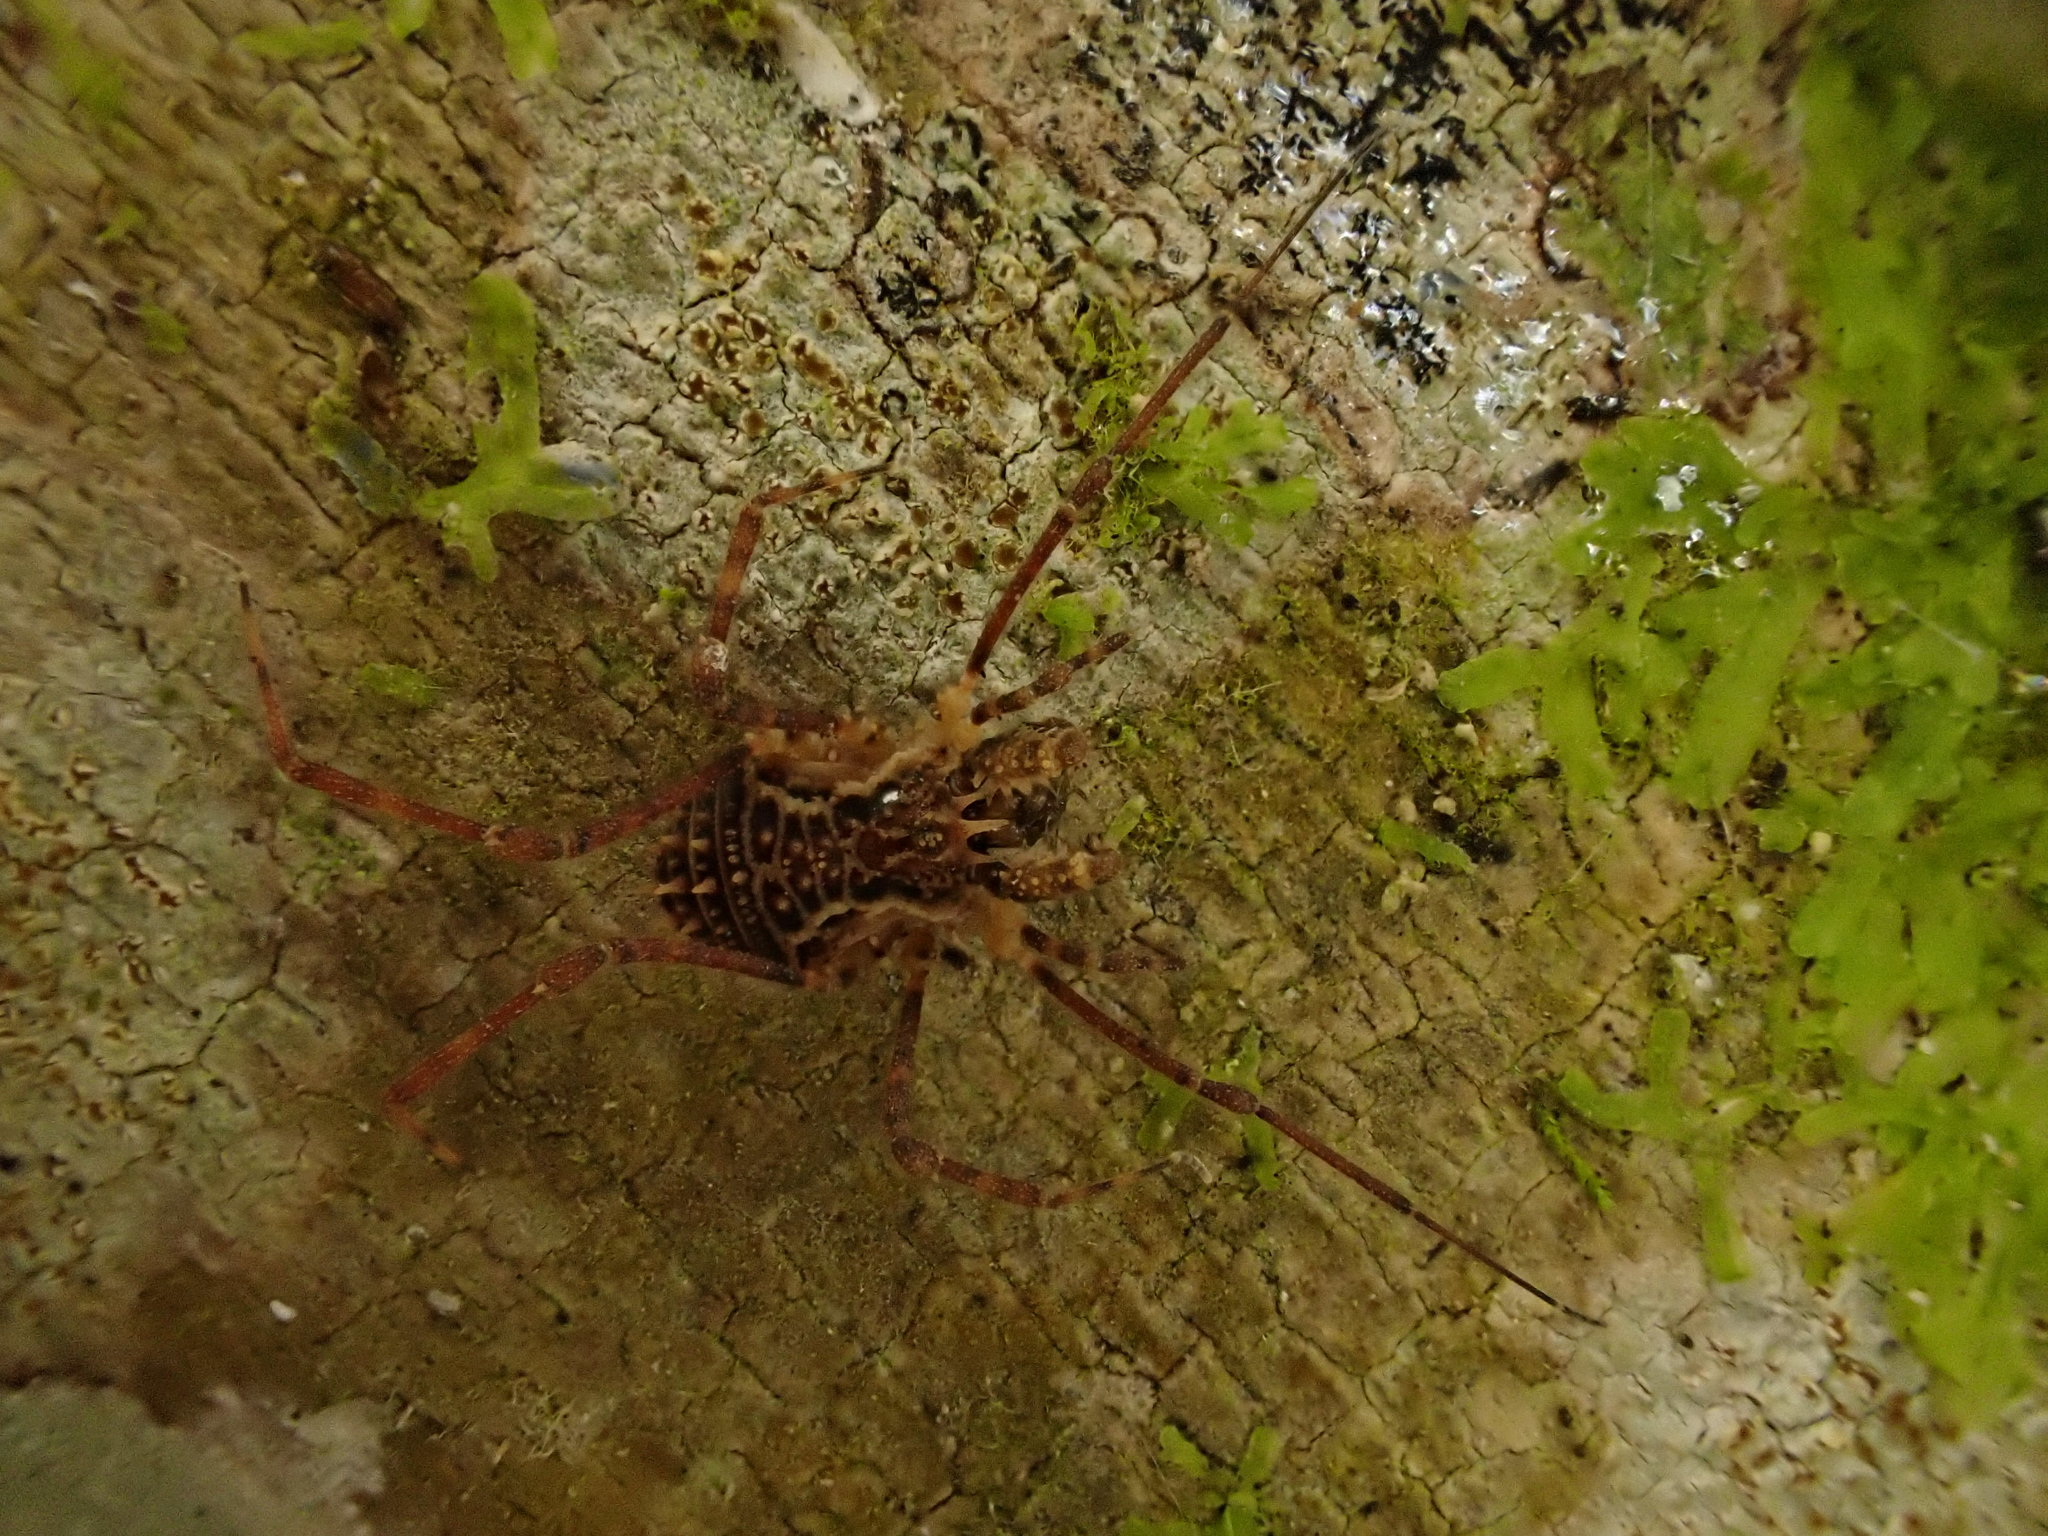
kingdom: Animalia
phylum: Arthropoda
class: Arachnida
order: Opiliones
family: Triaenonychidae
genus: Algidia
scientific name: Algidia chiltoni
